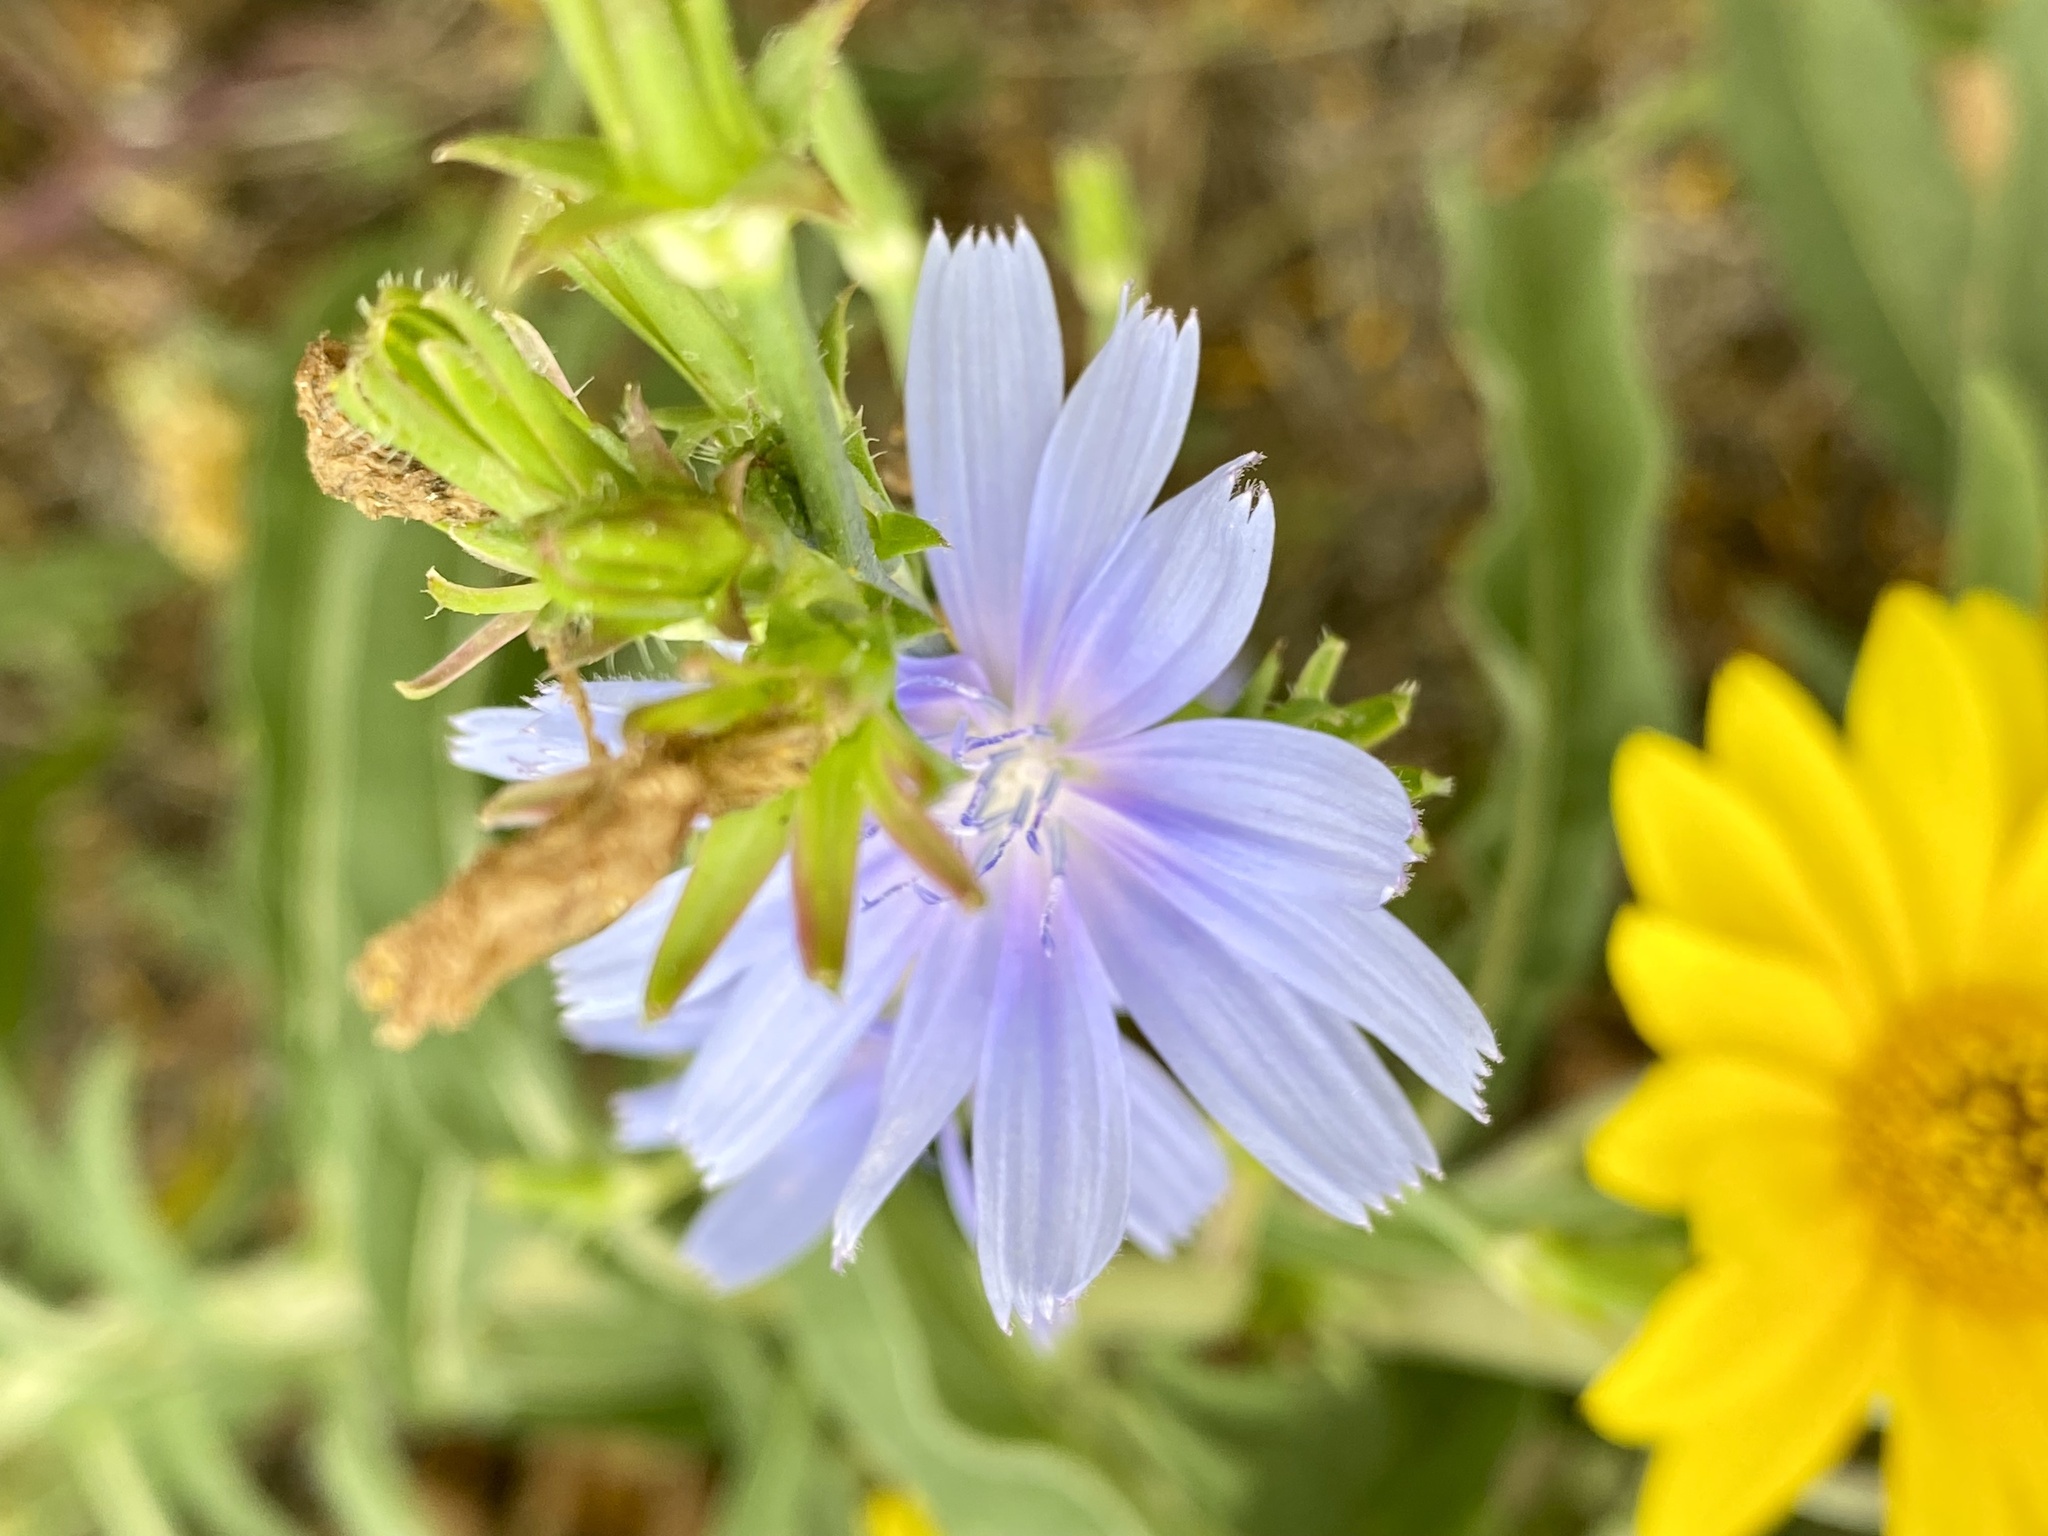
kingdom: Plantae
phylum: Tracheophyta
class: Magnoliopsida
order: Asterales
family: Asteraceae
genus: Cichorium
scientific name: Cichorium intybus
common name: Chicory
